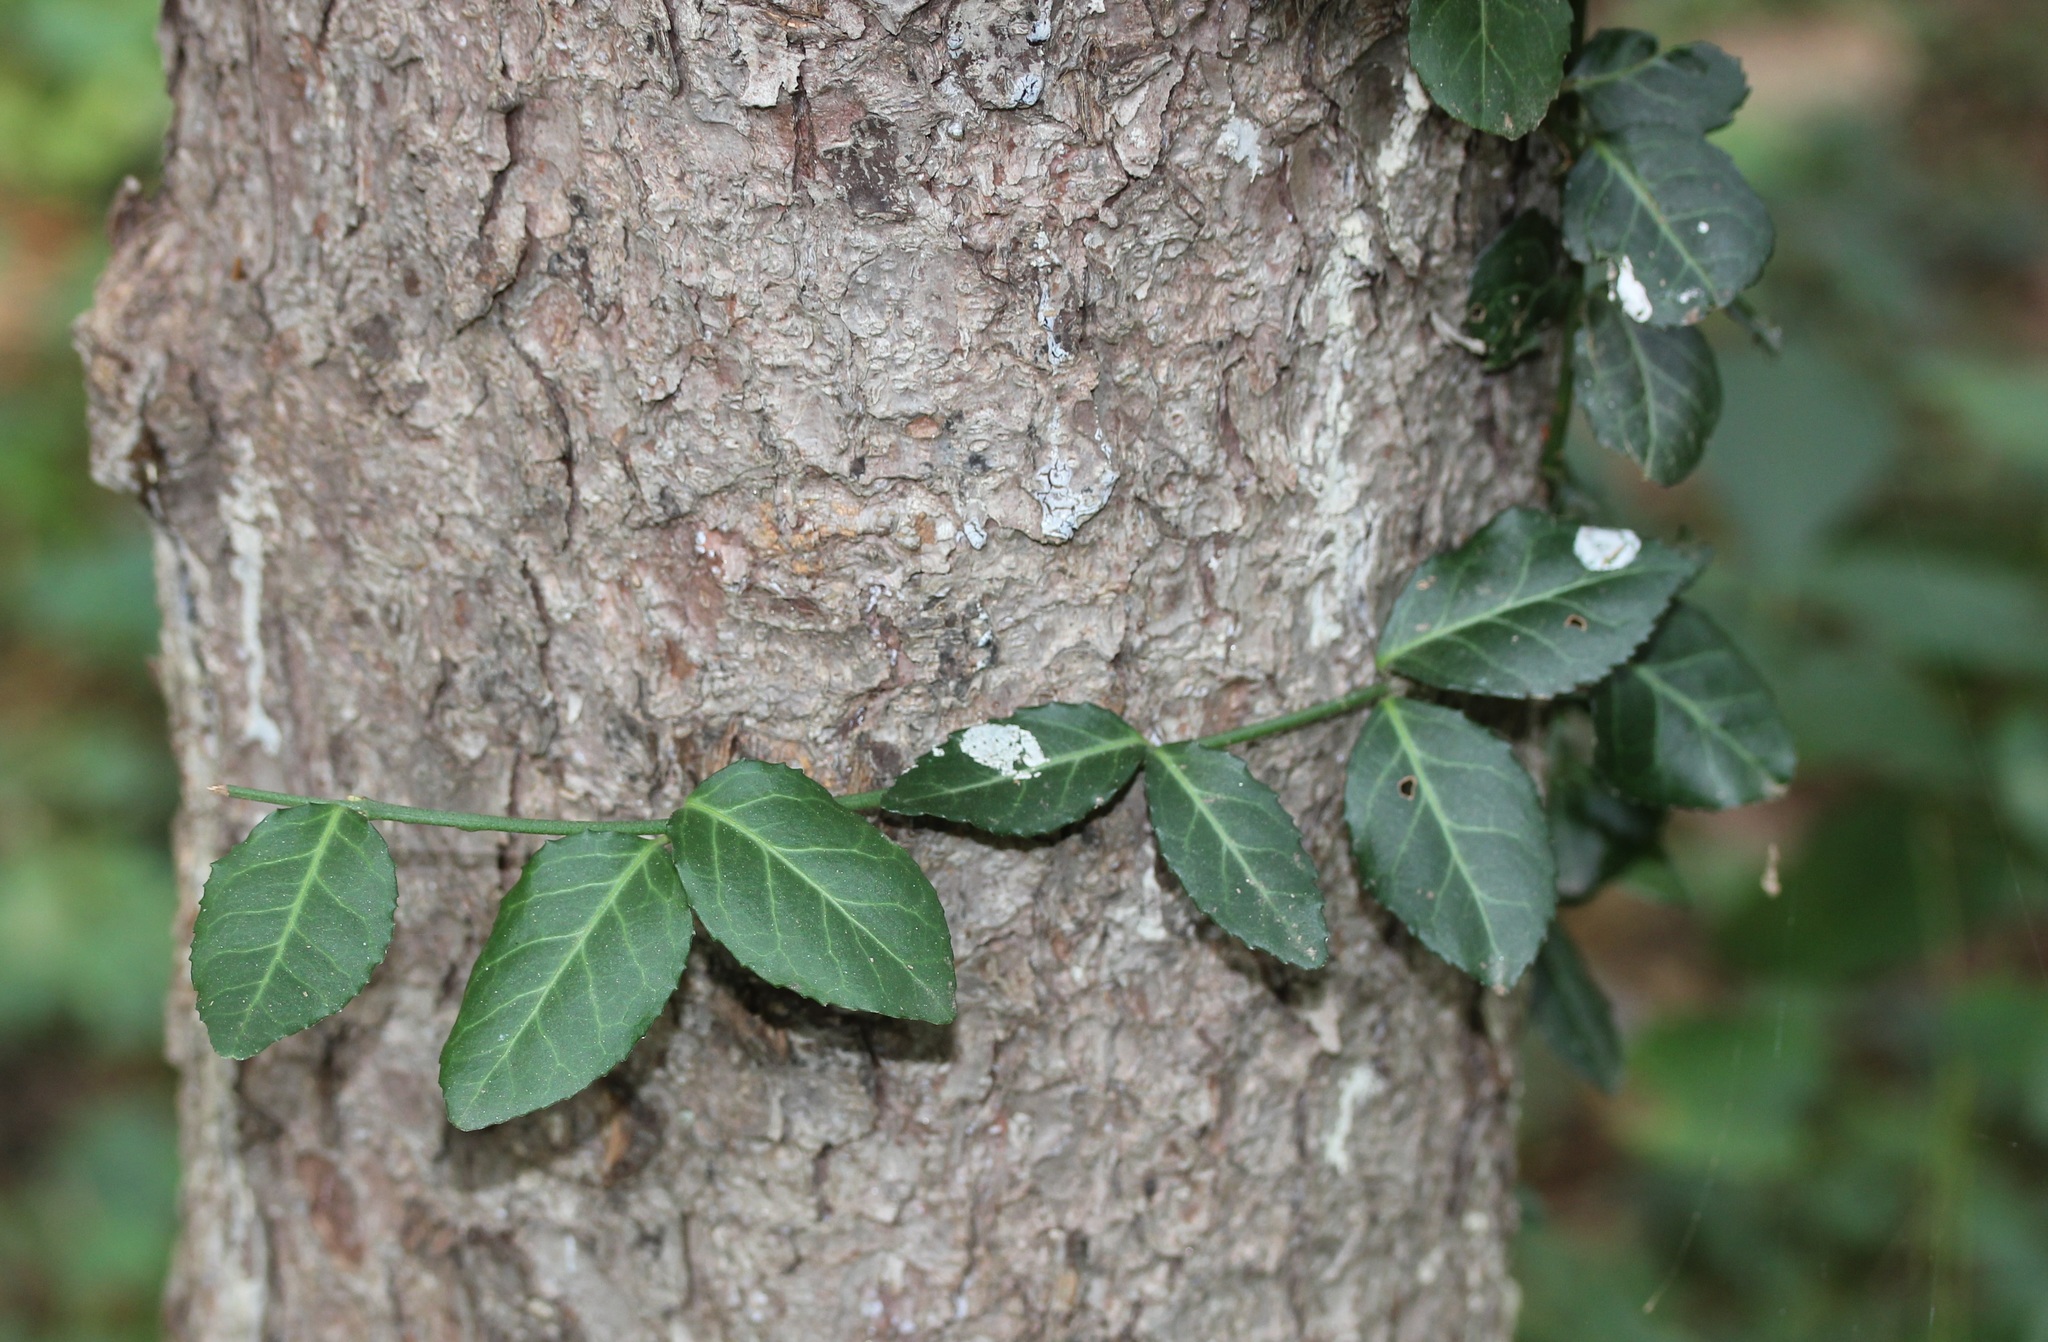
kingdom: Plantae
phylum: Tracheophyta
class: Magnoliopsida
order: Celastrales
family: Celastraceae
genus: Euonymus
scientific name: Euonymus fortunei
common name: Climbing euonymus
